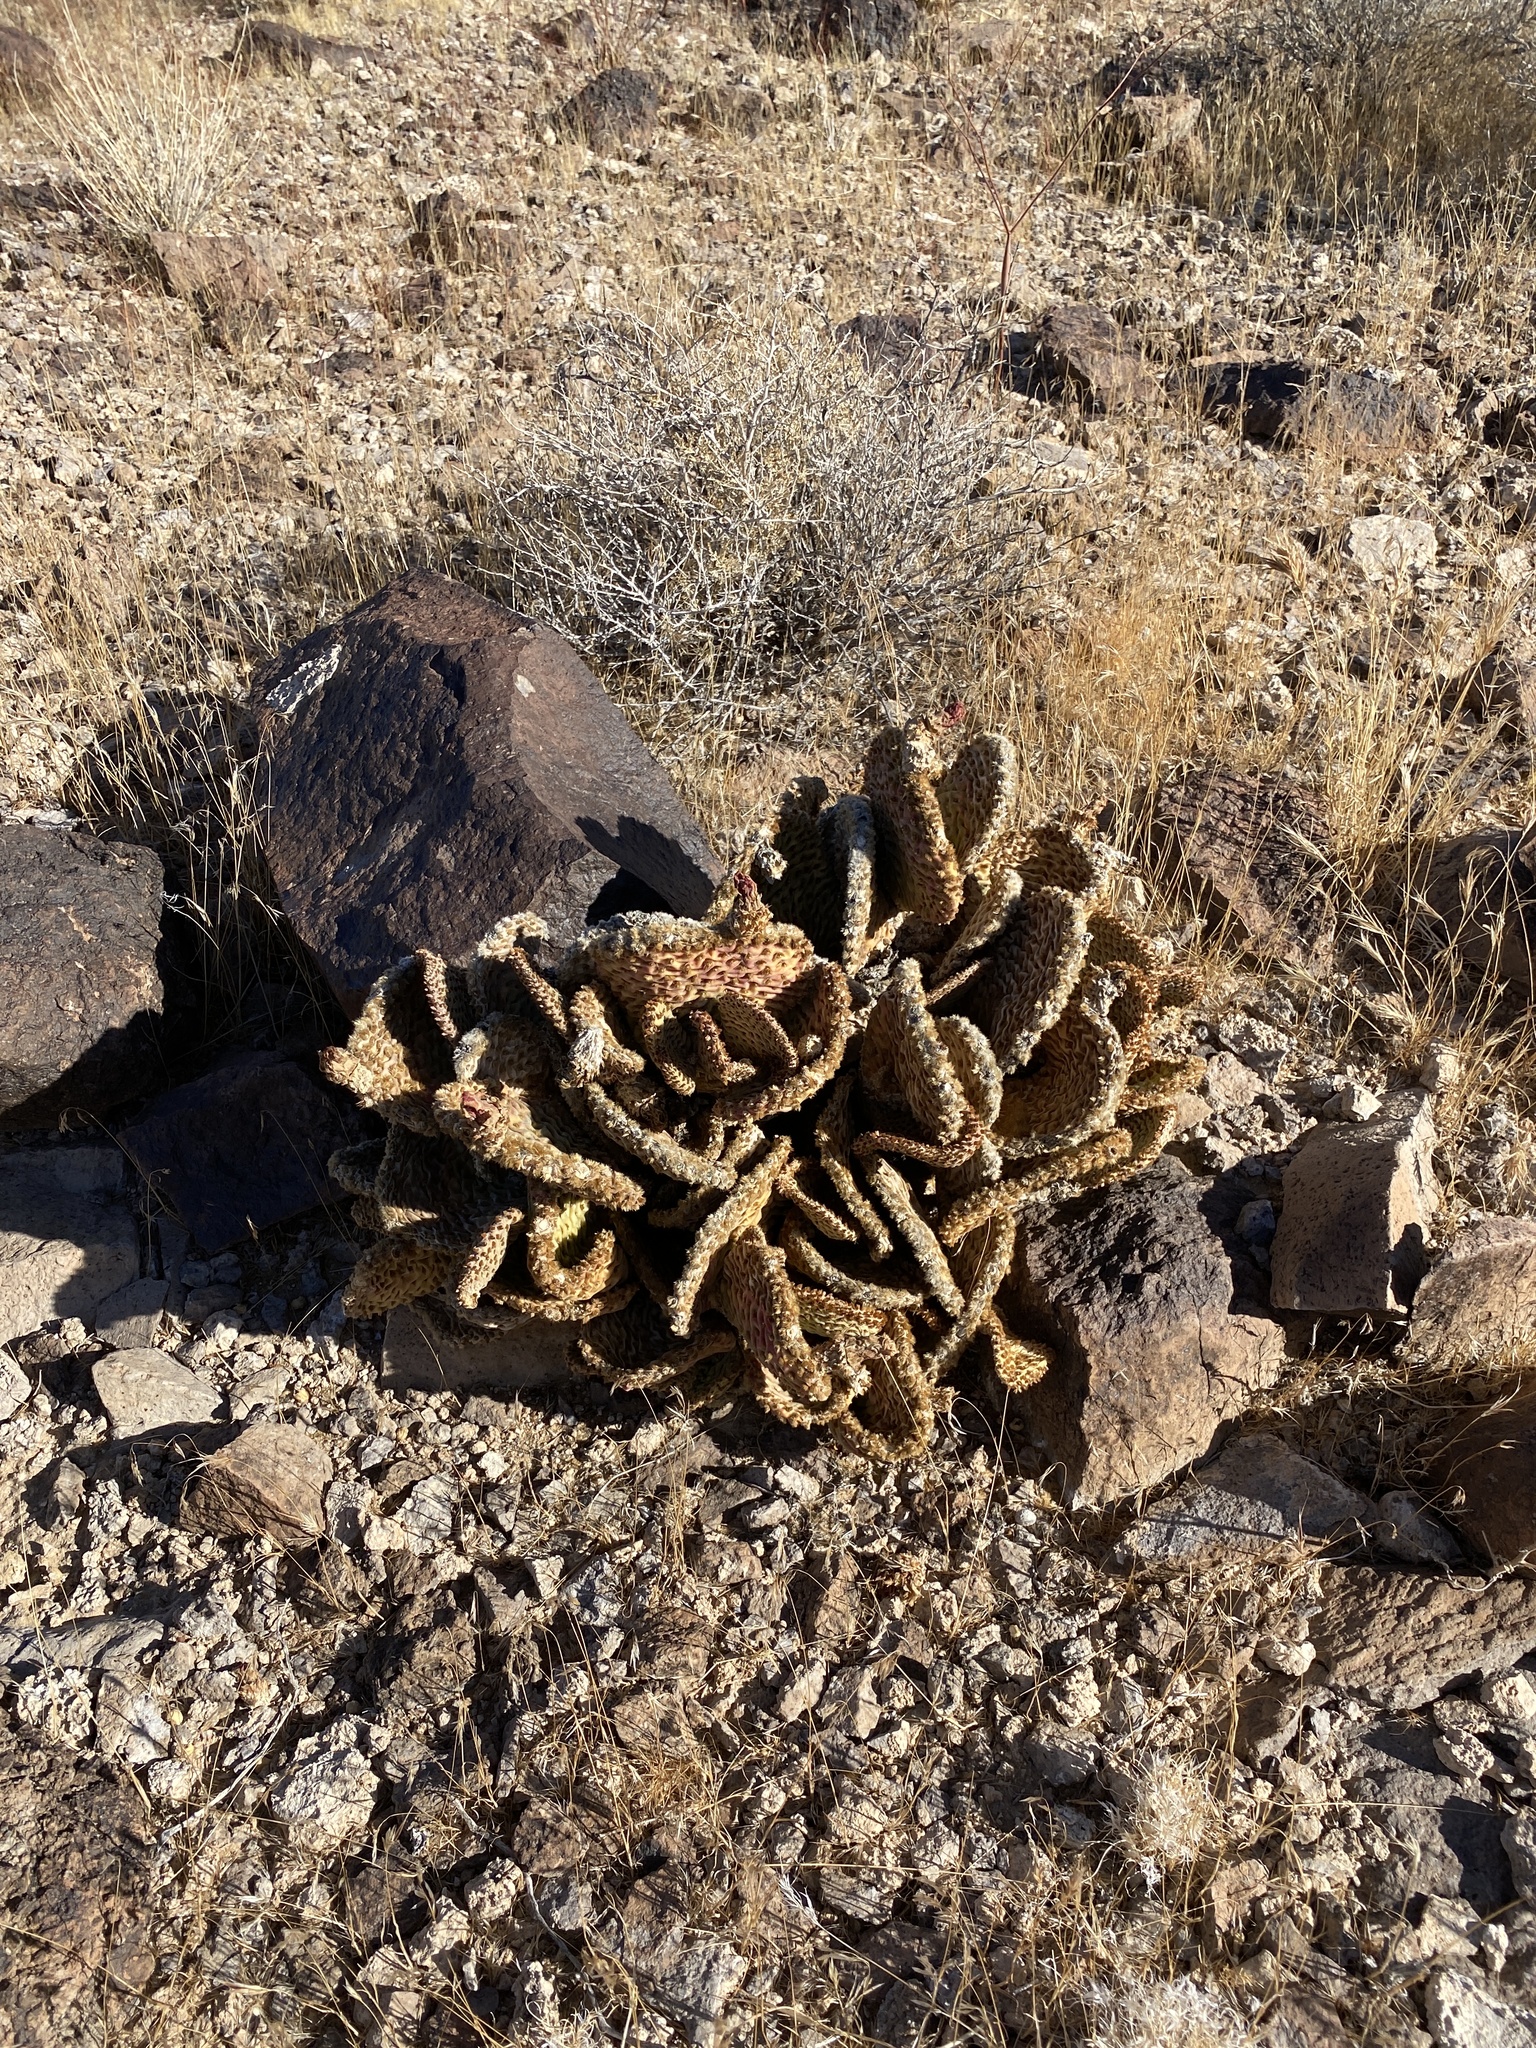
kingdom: Plantae
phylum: Tracheophyta
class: Magnoliopsida
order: Caryophyllales
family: Cactaceae
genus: Opuntia
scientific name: Opuntia basilaris
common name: Beavertail prickly-pear
